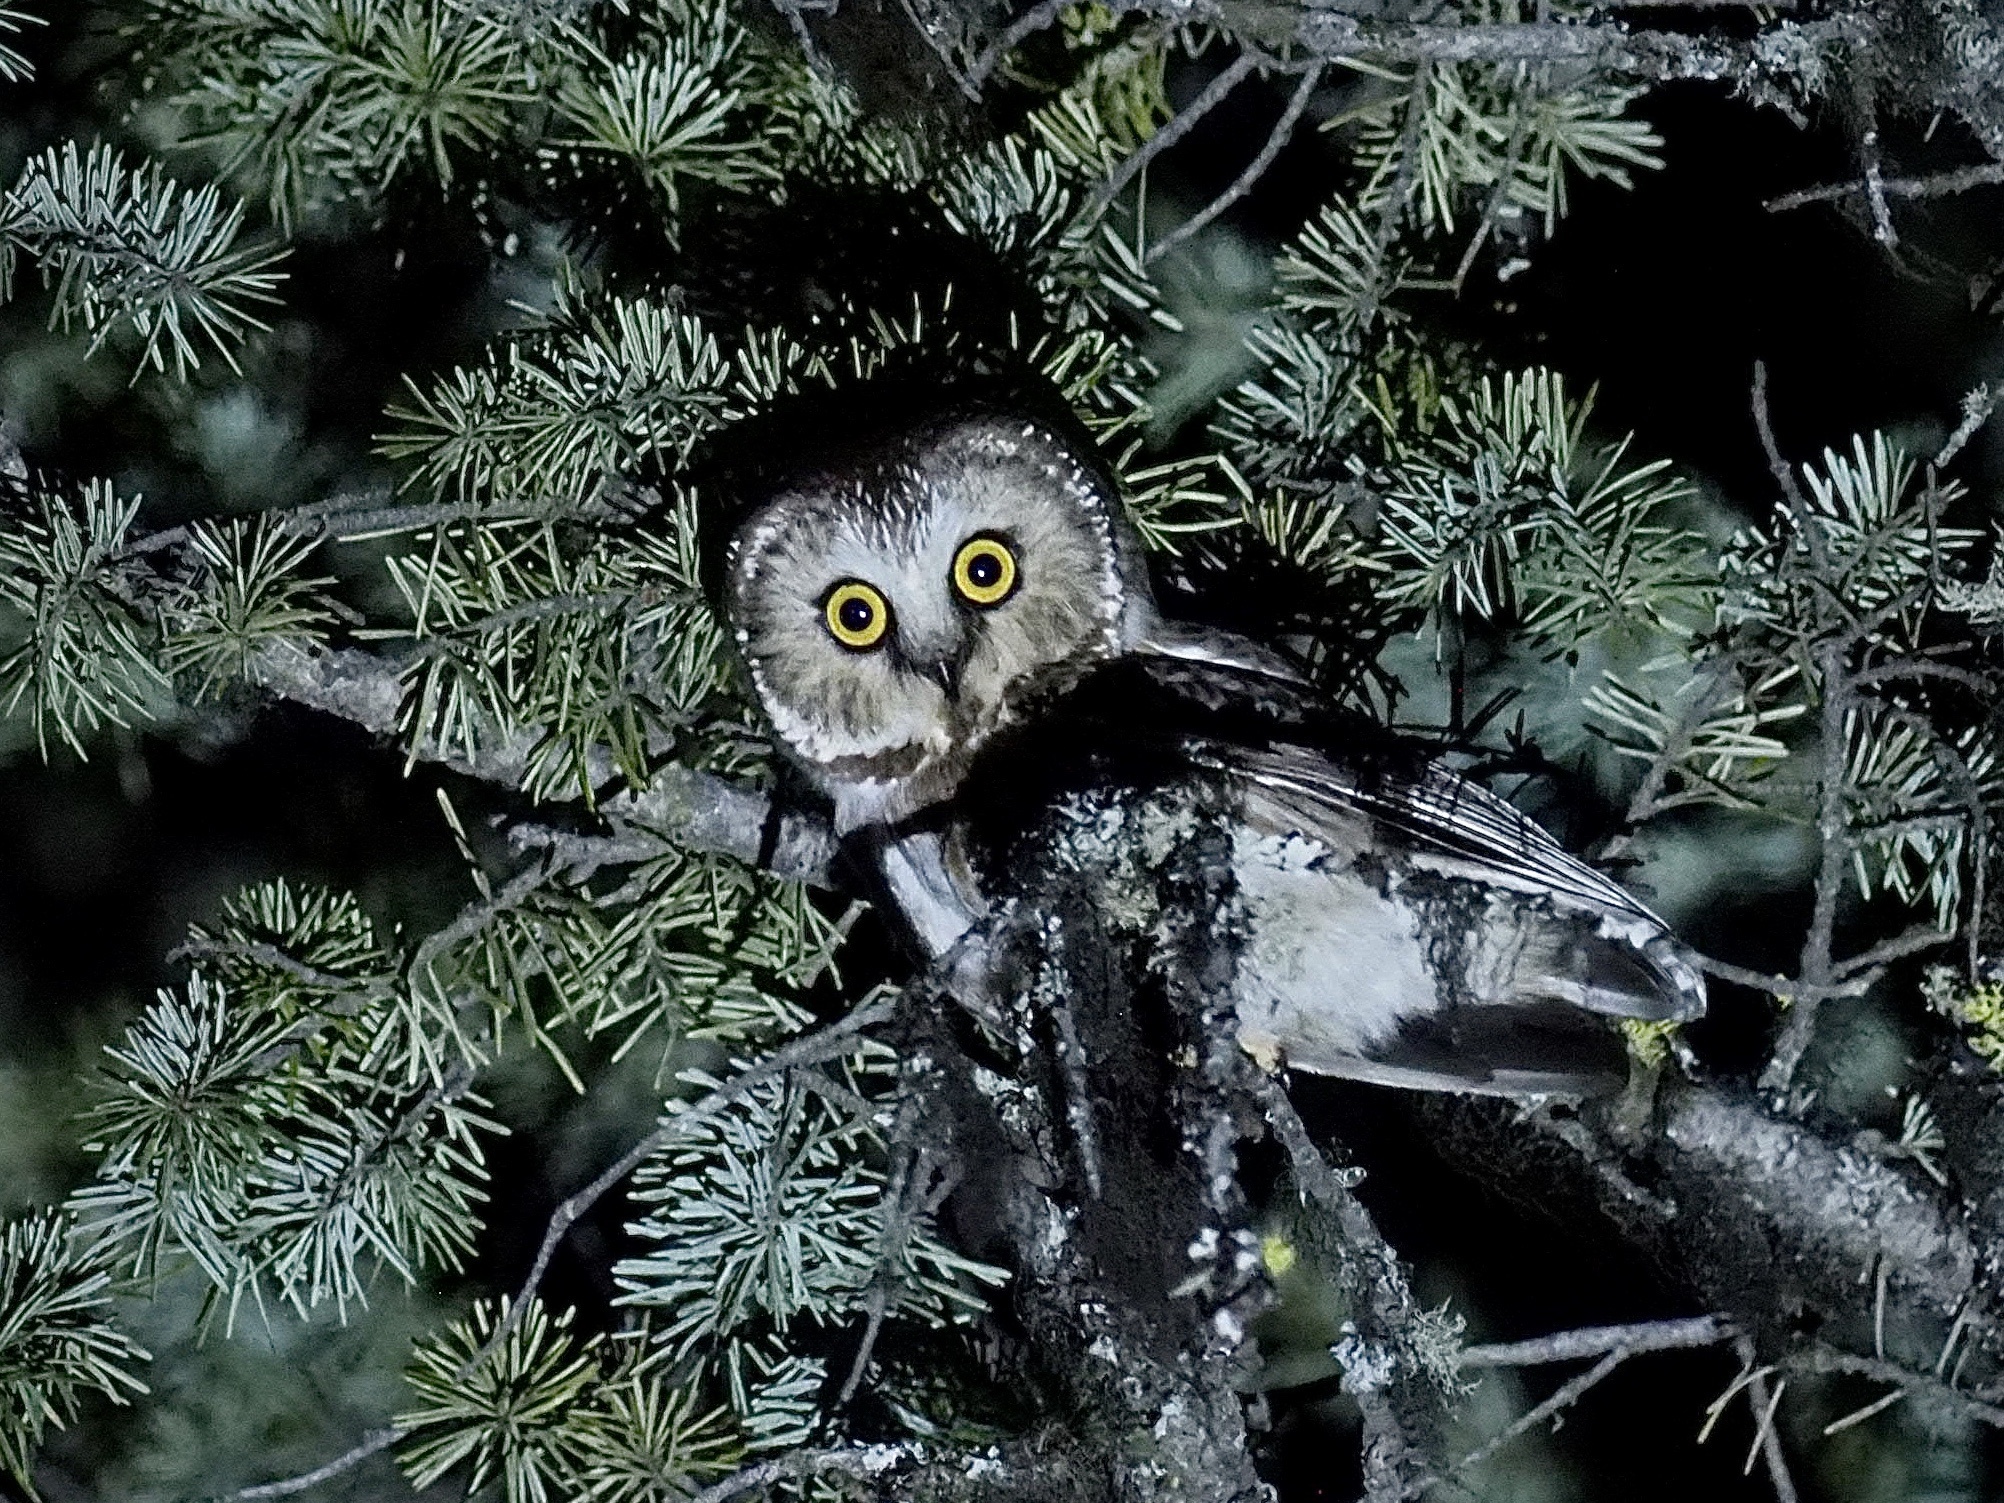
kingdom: Animalia
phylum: Chordata
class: Aves
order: Strigiformes
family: Strigidae
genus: Aegolius
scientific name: Aegolius acadicus
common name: Northern saw-whet owl
